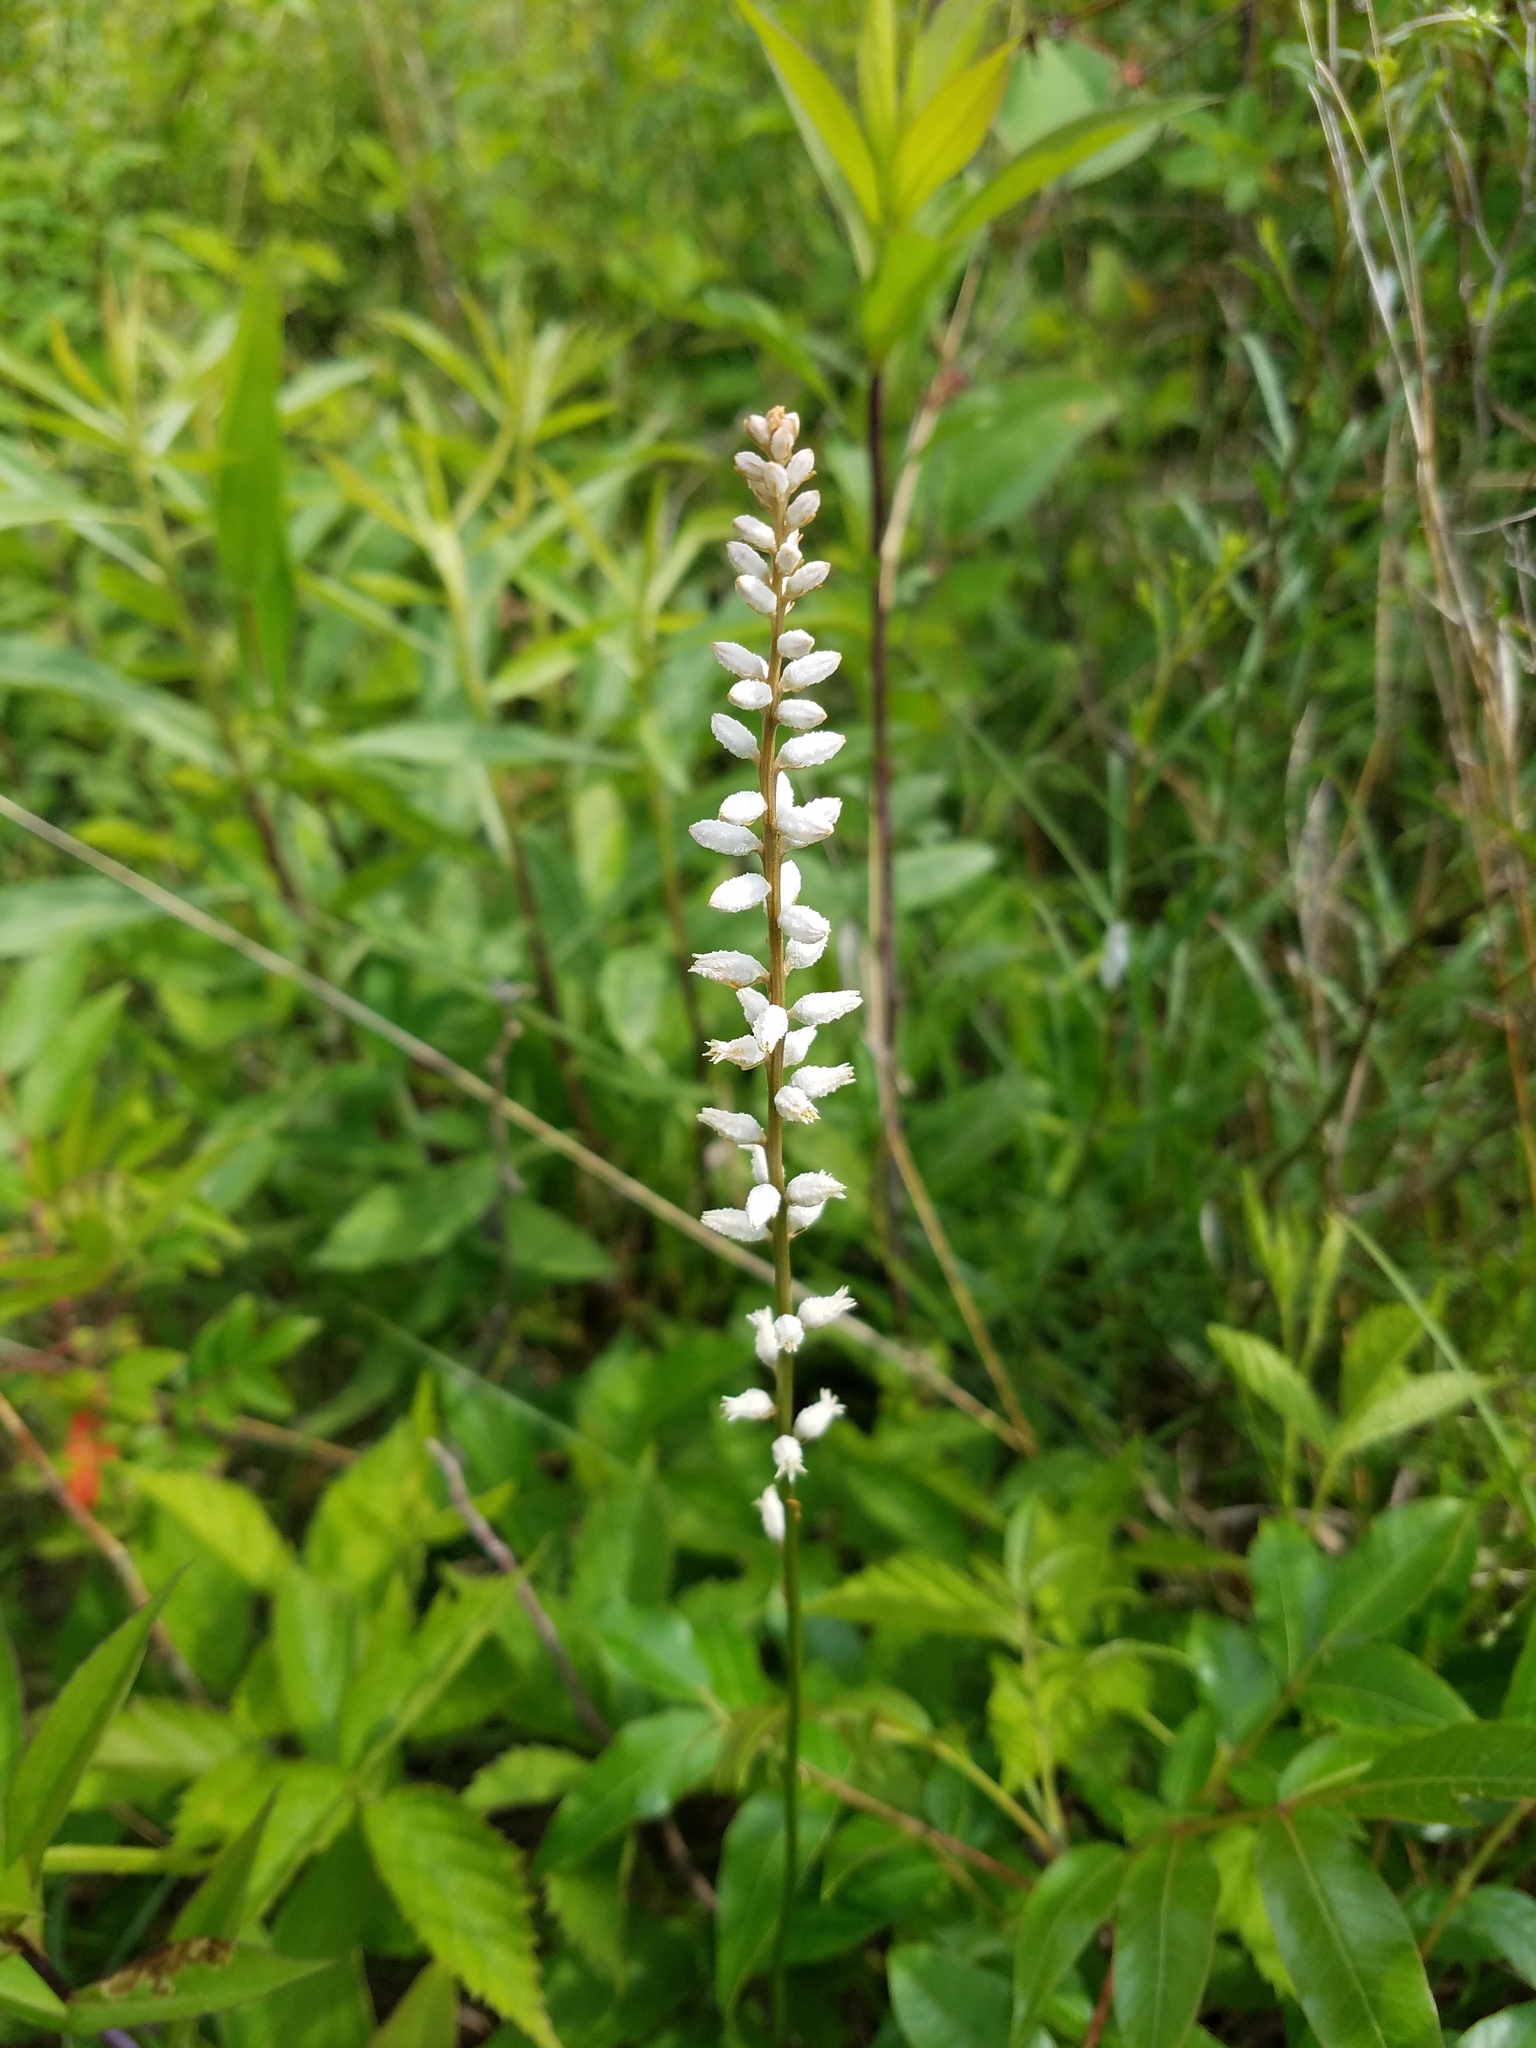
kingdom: Plantae
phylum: Tracheophyta
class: Liliopsida
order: Dioscoreales
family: Nartheciaceae
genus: Aletris
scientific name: Aletris farinosa
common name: Colicroot
